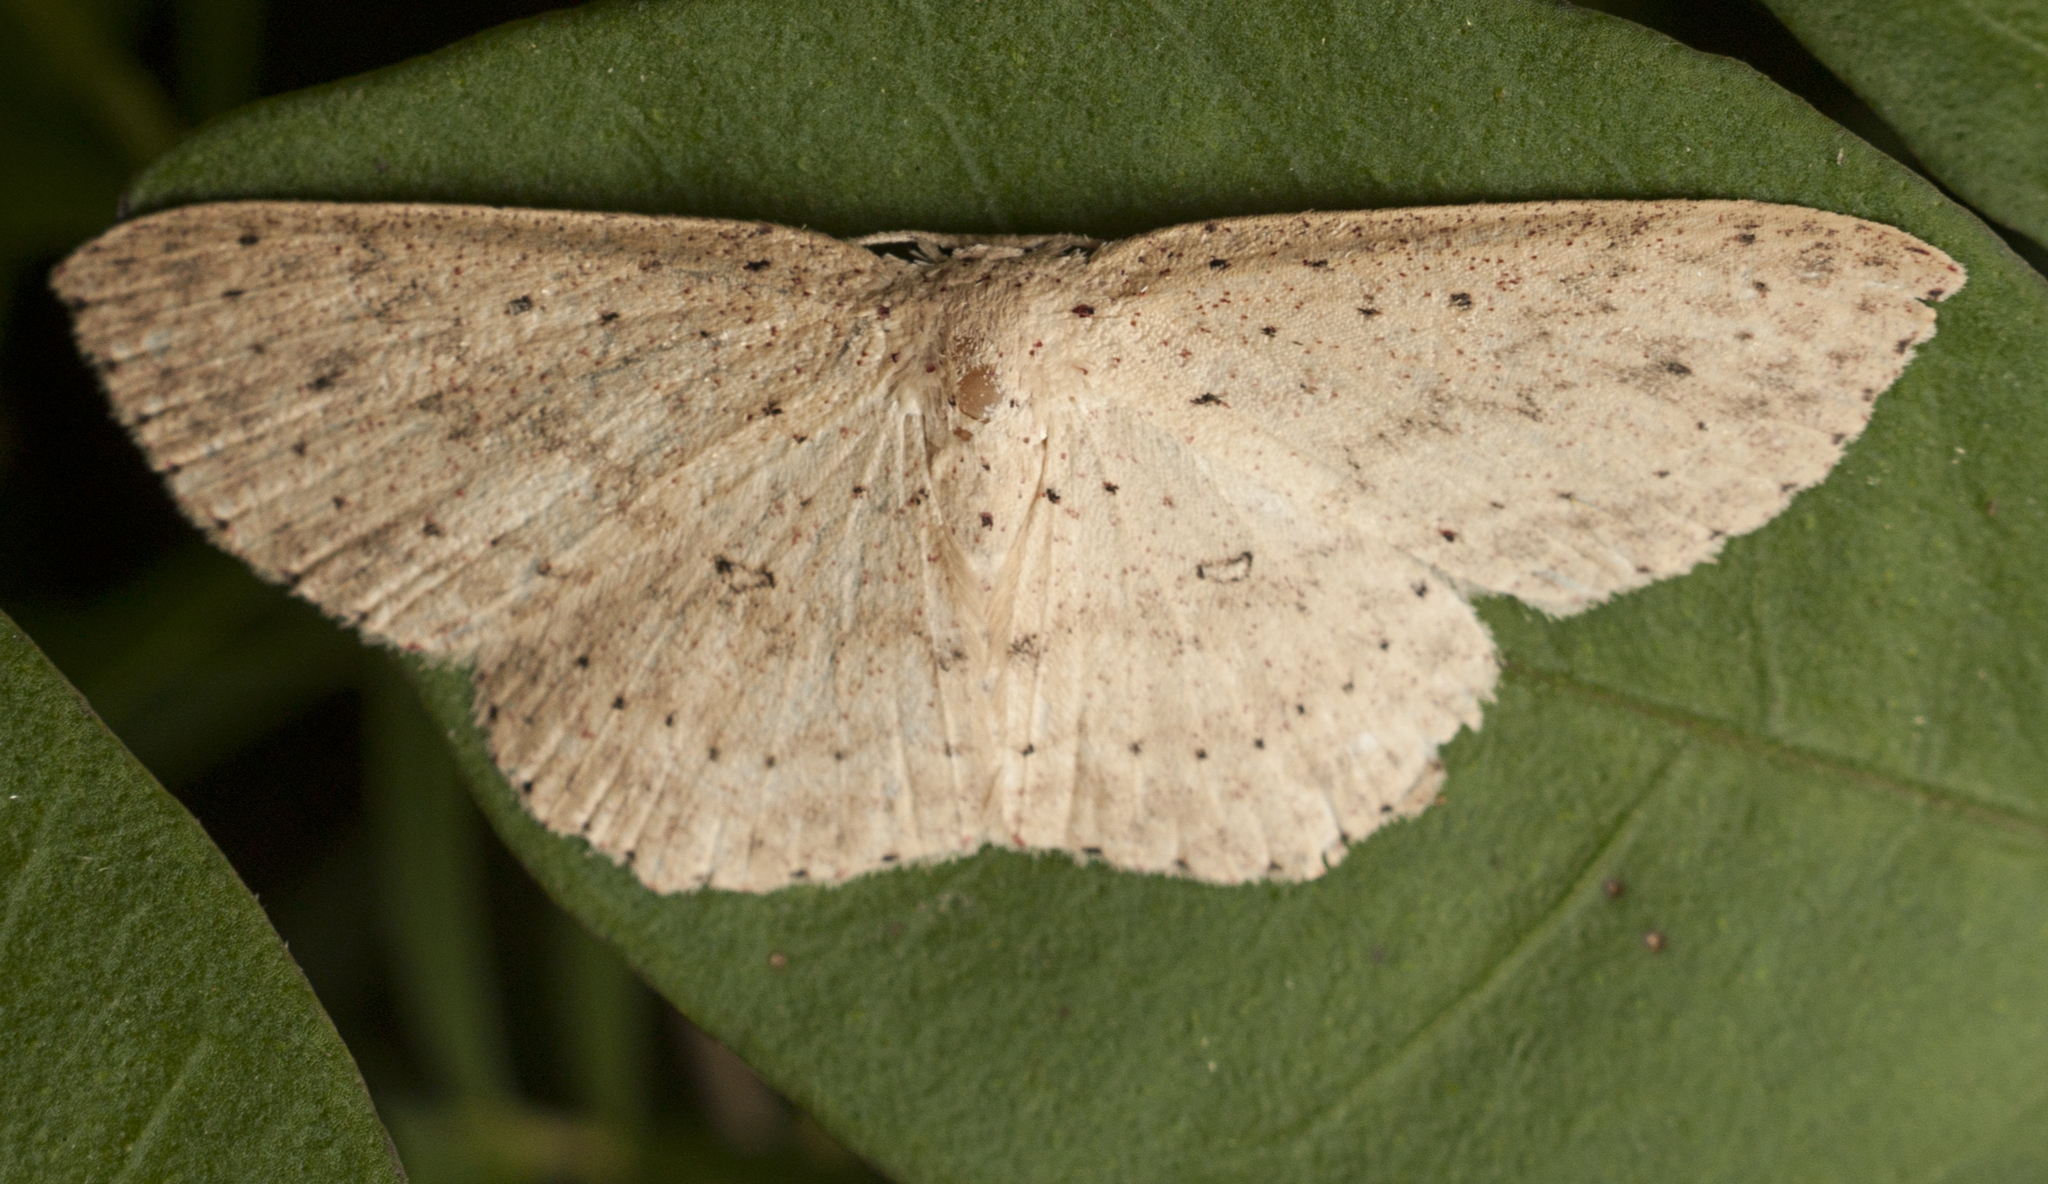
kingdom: Animalia
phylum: Arthropoda
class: Insecta
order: Lepidoptera
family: Geometridae
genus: Cyclophora
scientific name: Cyclophora turneri
